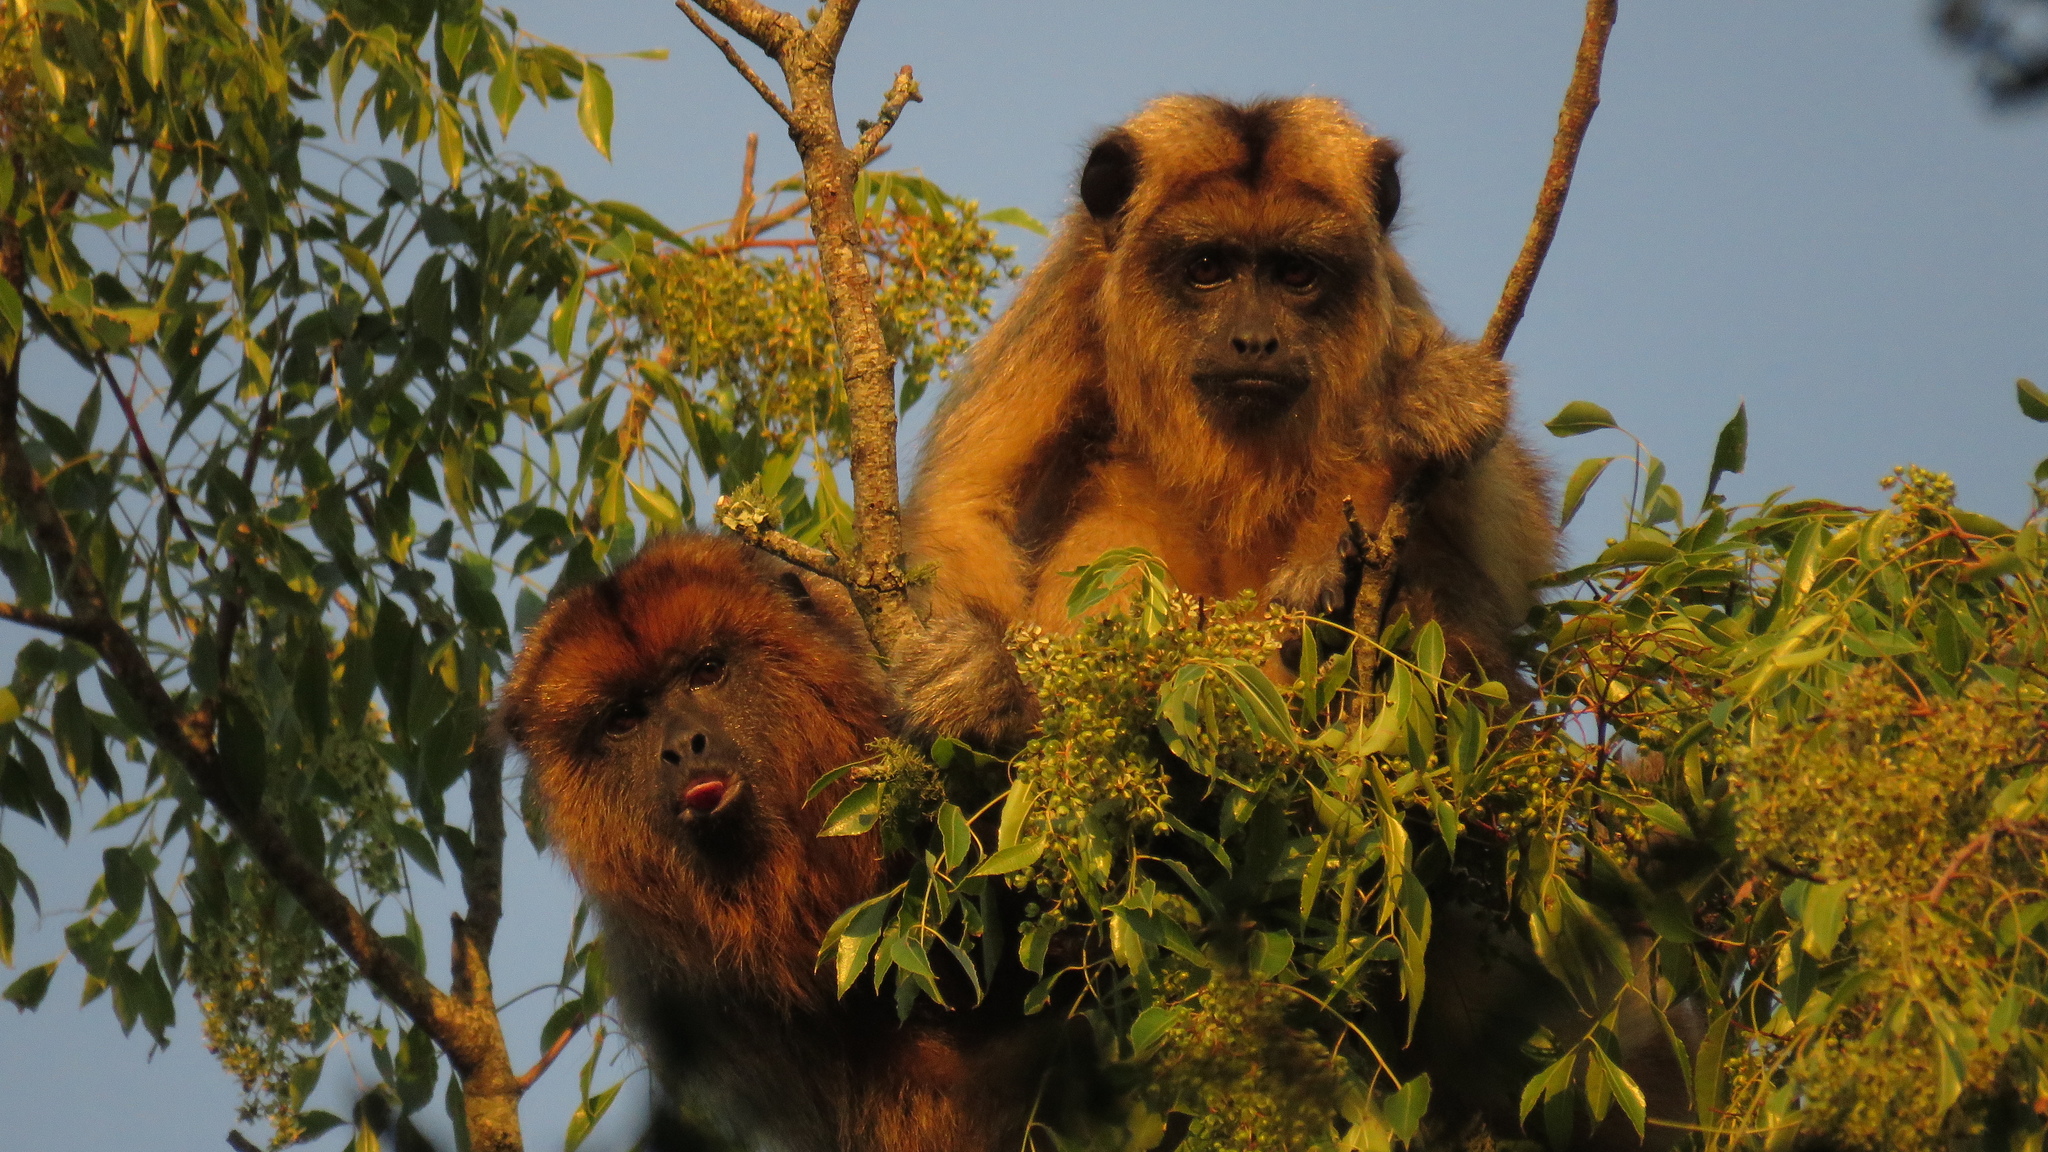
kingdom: Animalia
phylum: Chordata
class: Mammalia
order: Primates
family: Atelidae
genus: Alouatta
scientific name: Alouatta caraya
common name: Black howler
